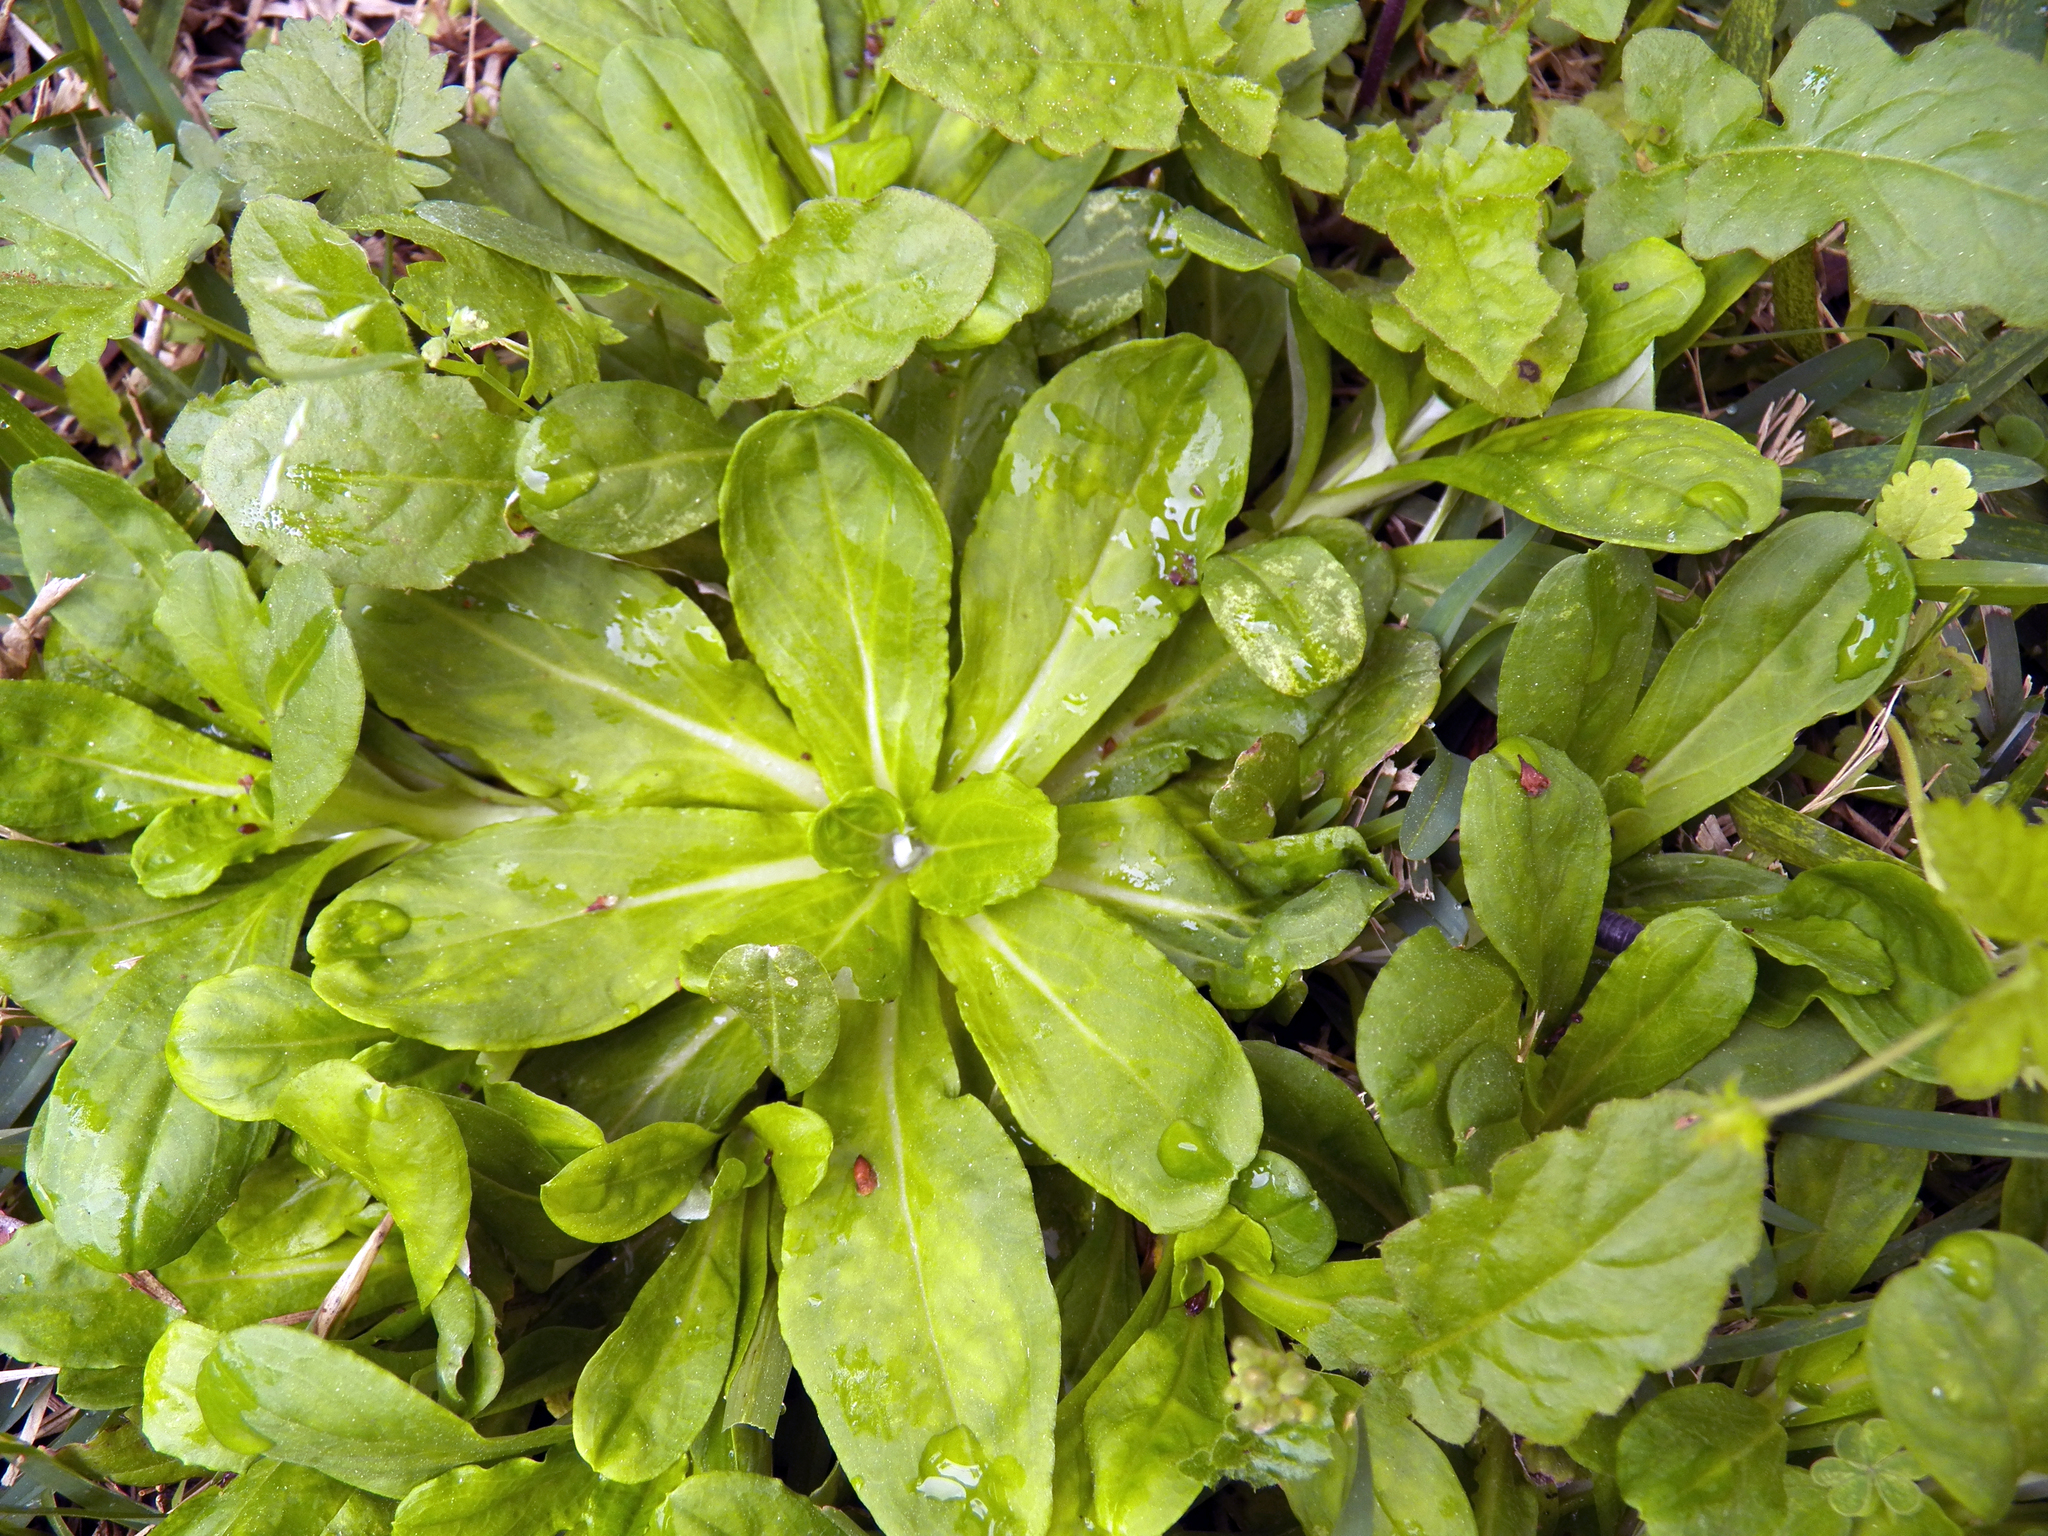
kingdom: Plantae
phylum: Tracheophyta
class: Magnoliopsida
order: Asterales
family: Asteraceae
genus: Gamochaeta
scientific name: Gamochaeta americana
